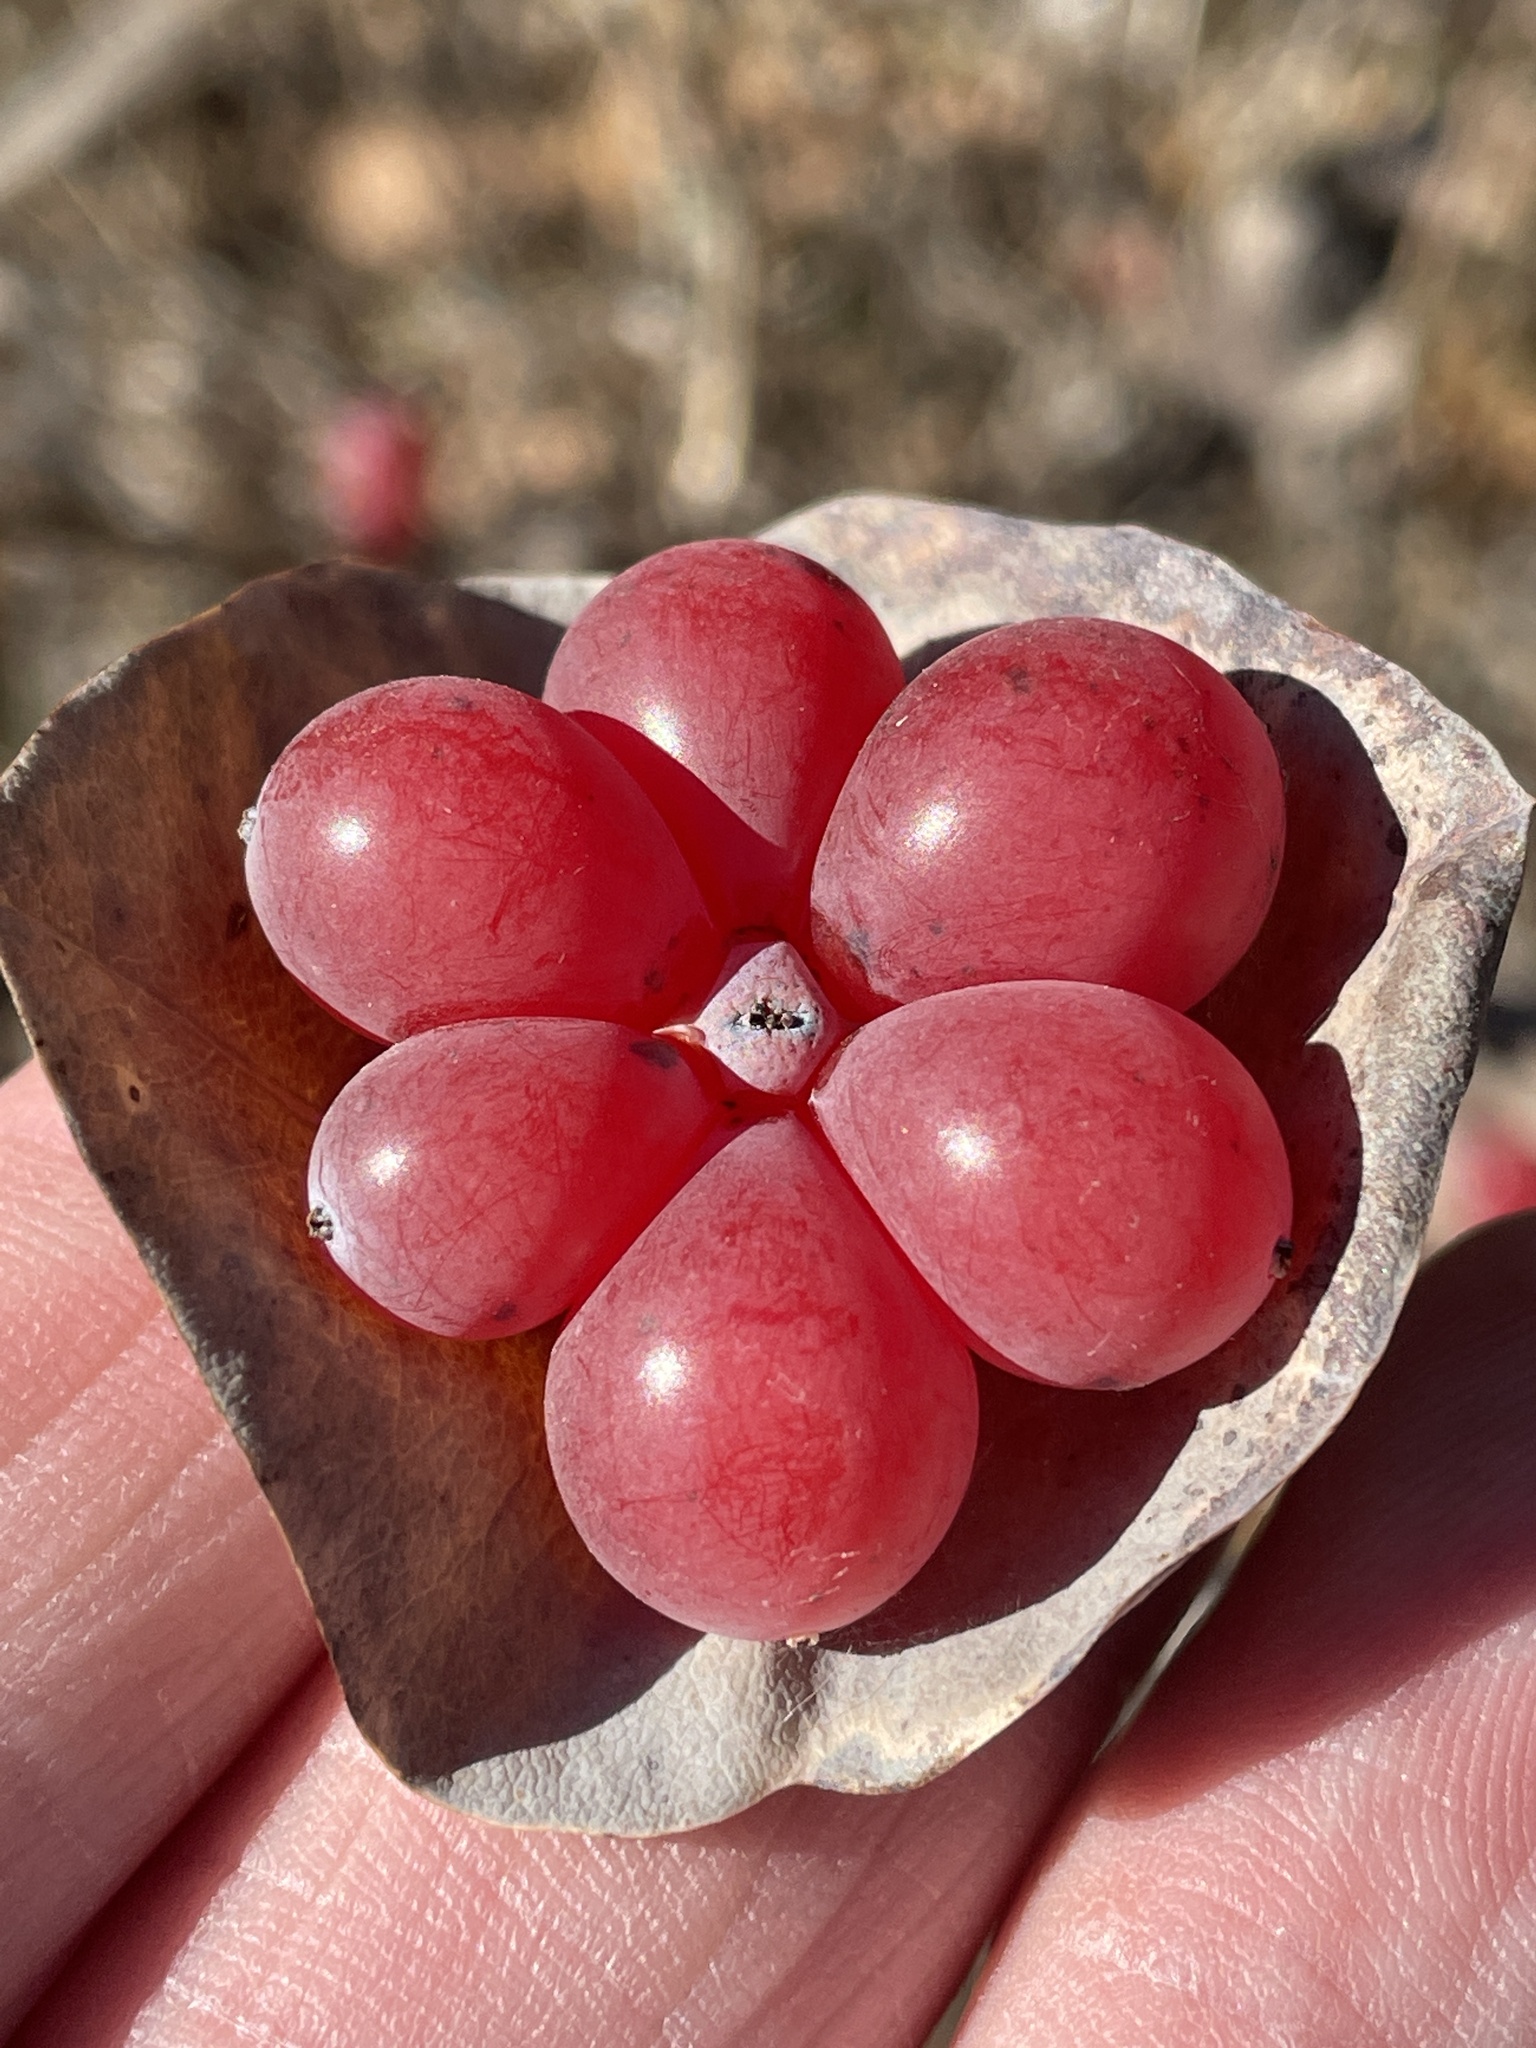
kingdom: Plantae
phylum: Tracheophyta
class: Magnoliopsida
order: Dipsacales
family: Caprifoliaceae
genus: Lonicera
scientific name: Lonicera albiflora
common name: White honeysuckle
